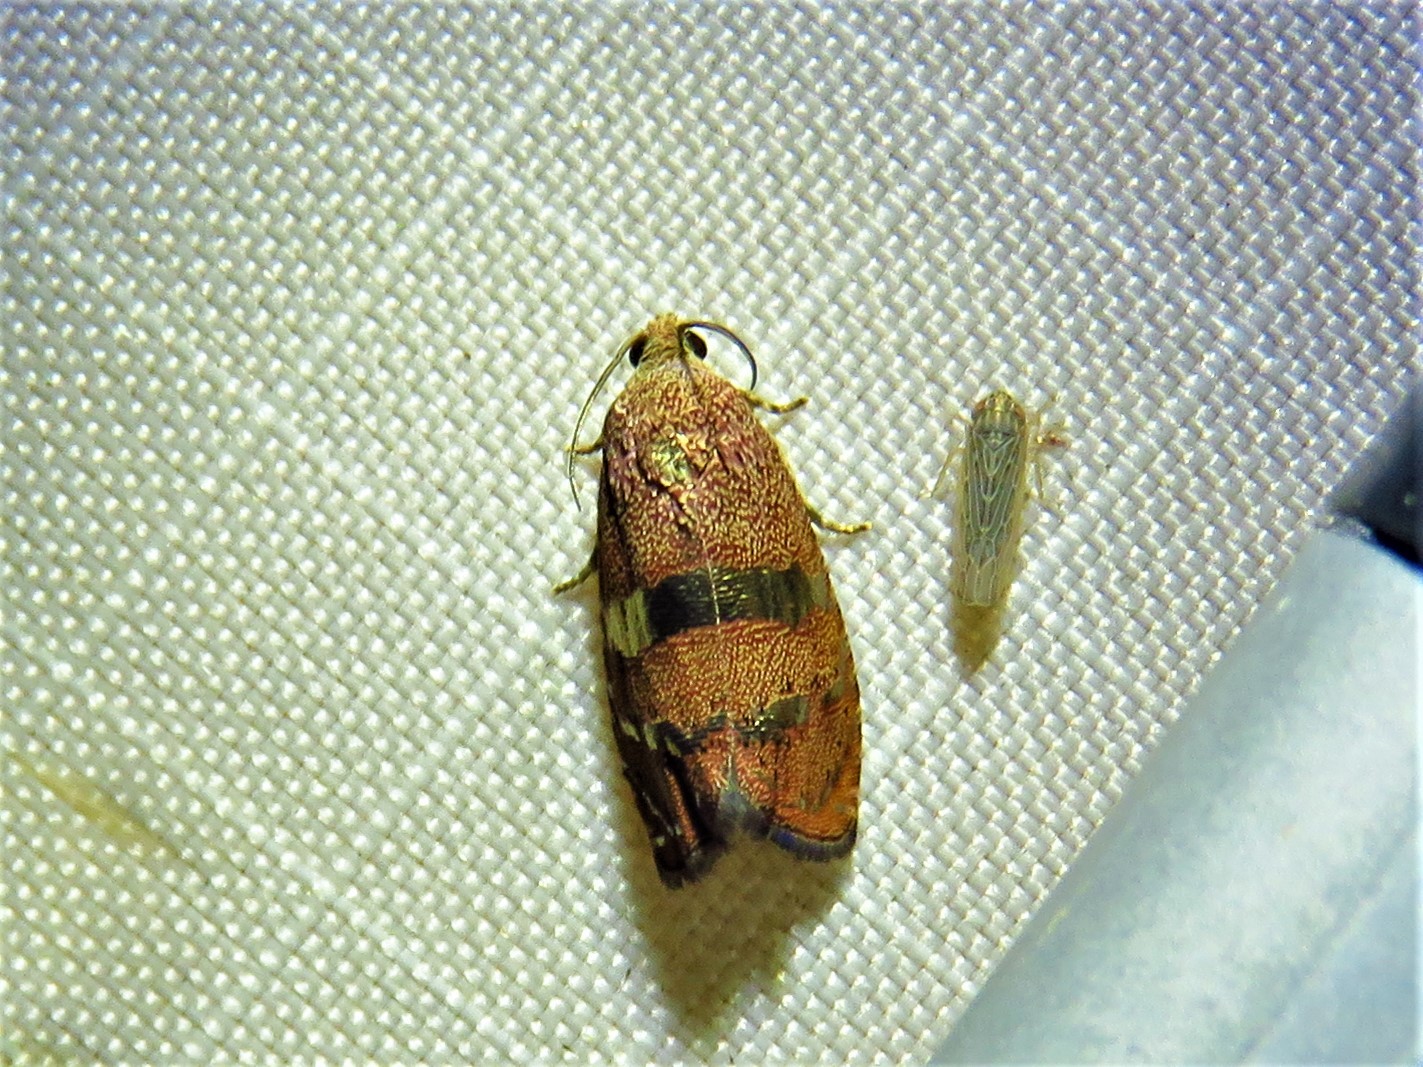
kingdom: Animalia
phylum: Arthropoda
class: Insecta
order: Lepidoptera
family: Tortricidae
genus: Cydia
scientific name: Cydia latiferreana
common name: Filbertworm moth
